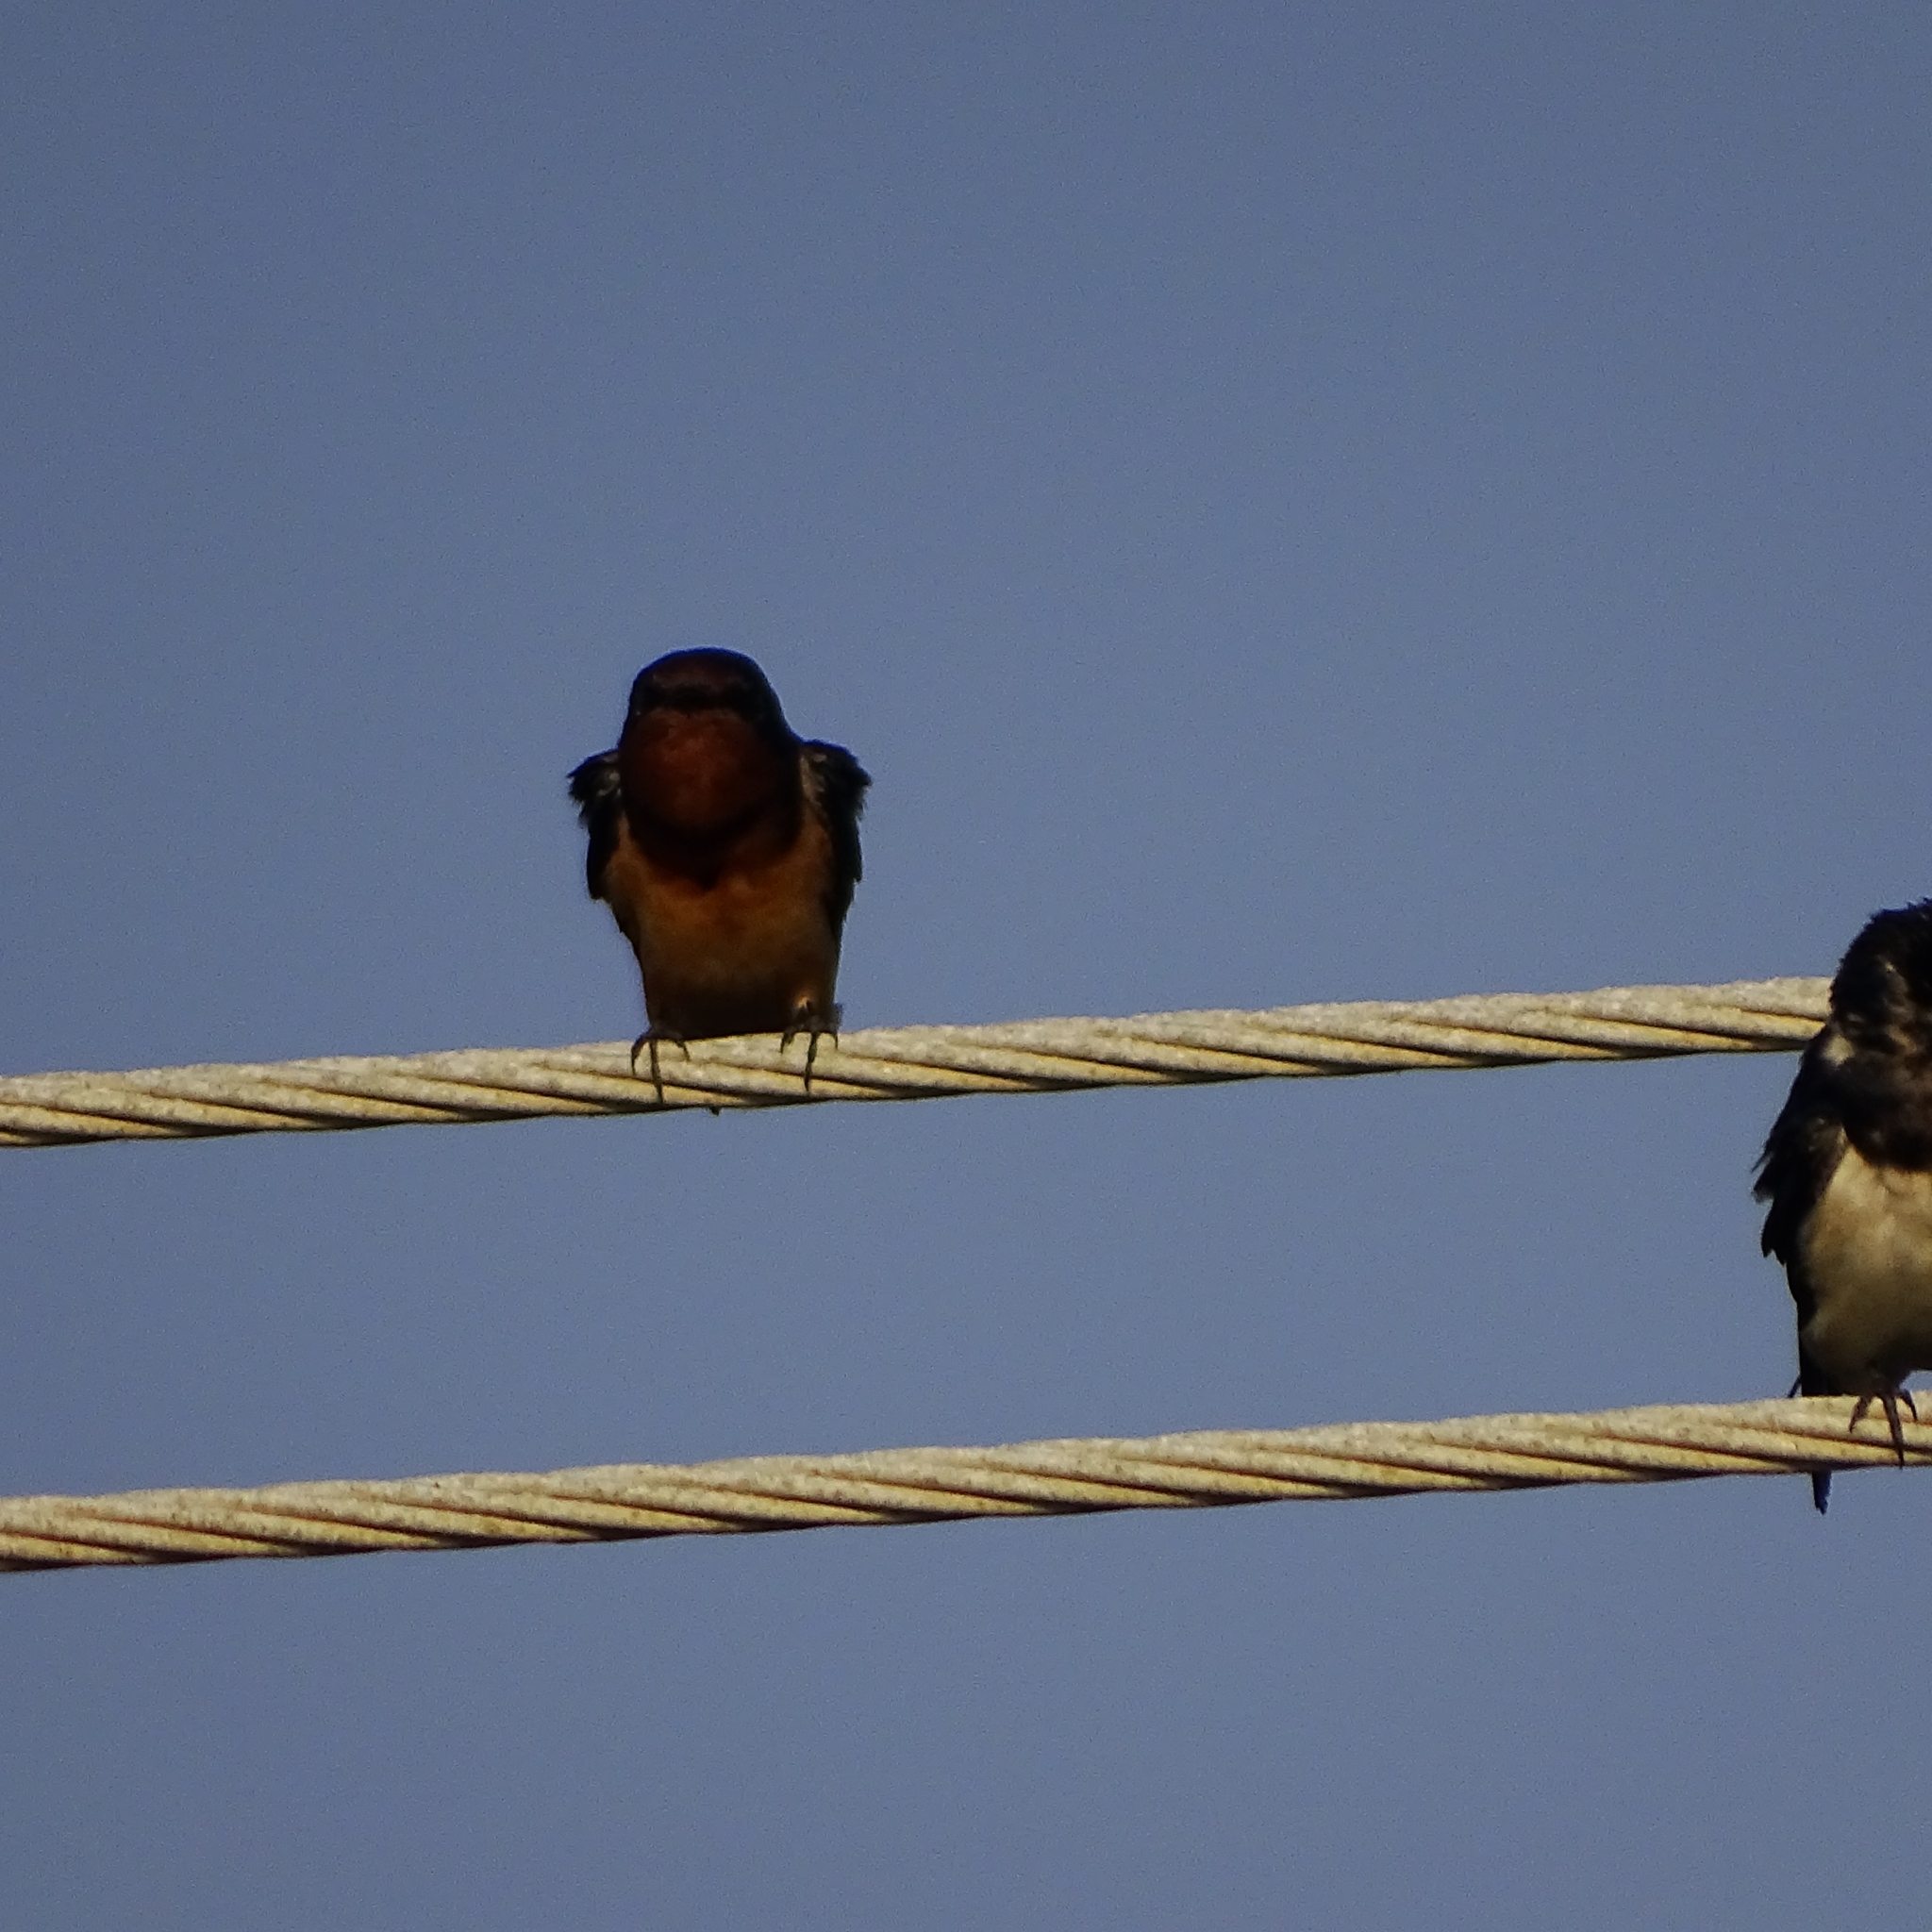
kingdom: Animalia
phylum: Chordata
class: Aves
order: Passeriformes
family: Hirundinidae
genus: Hirundo
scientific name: Hirundo rustica
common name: Barn swallow
